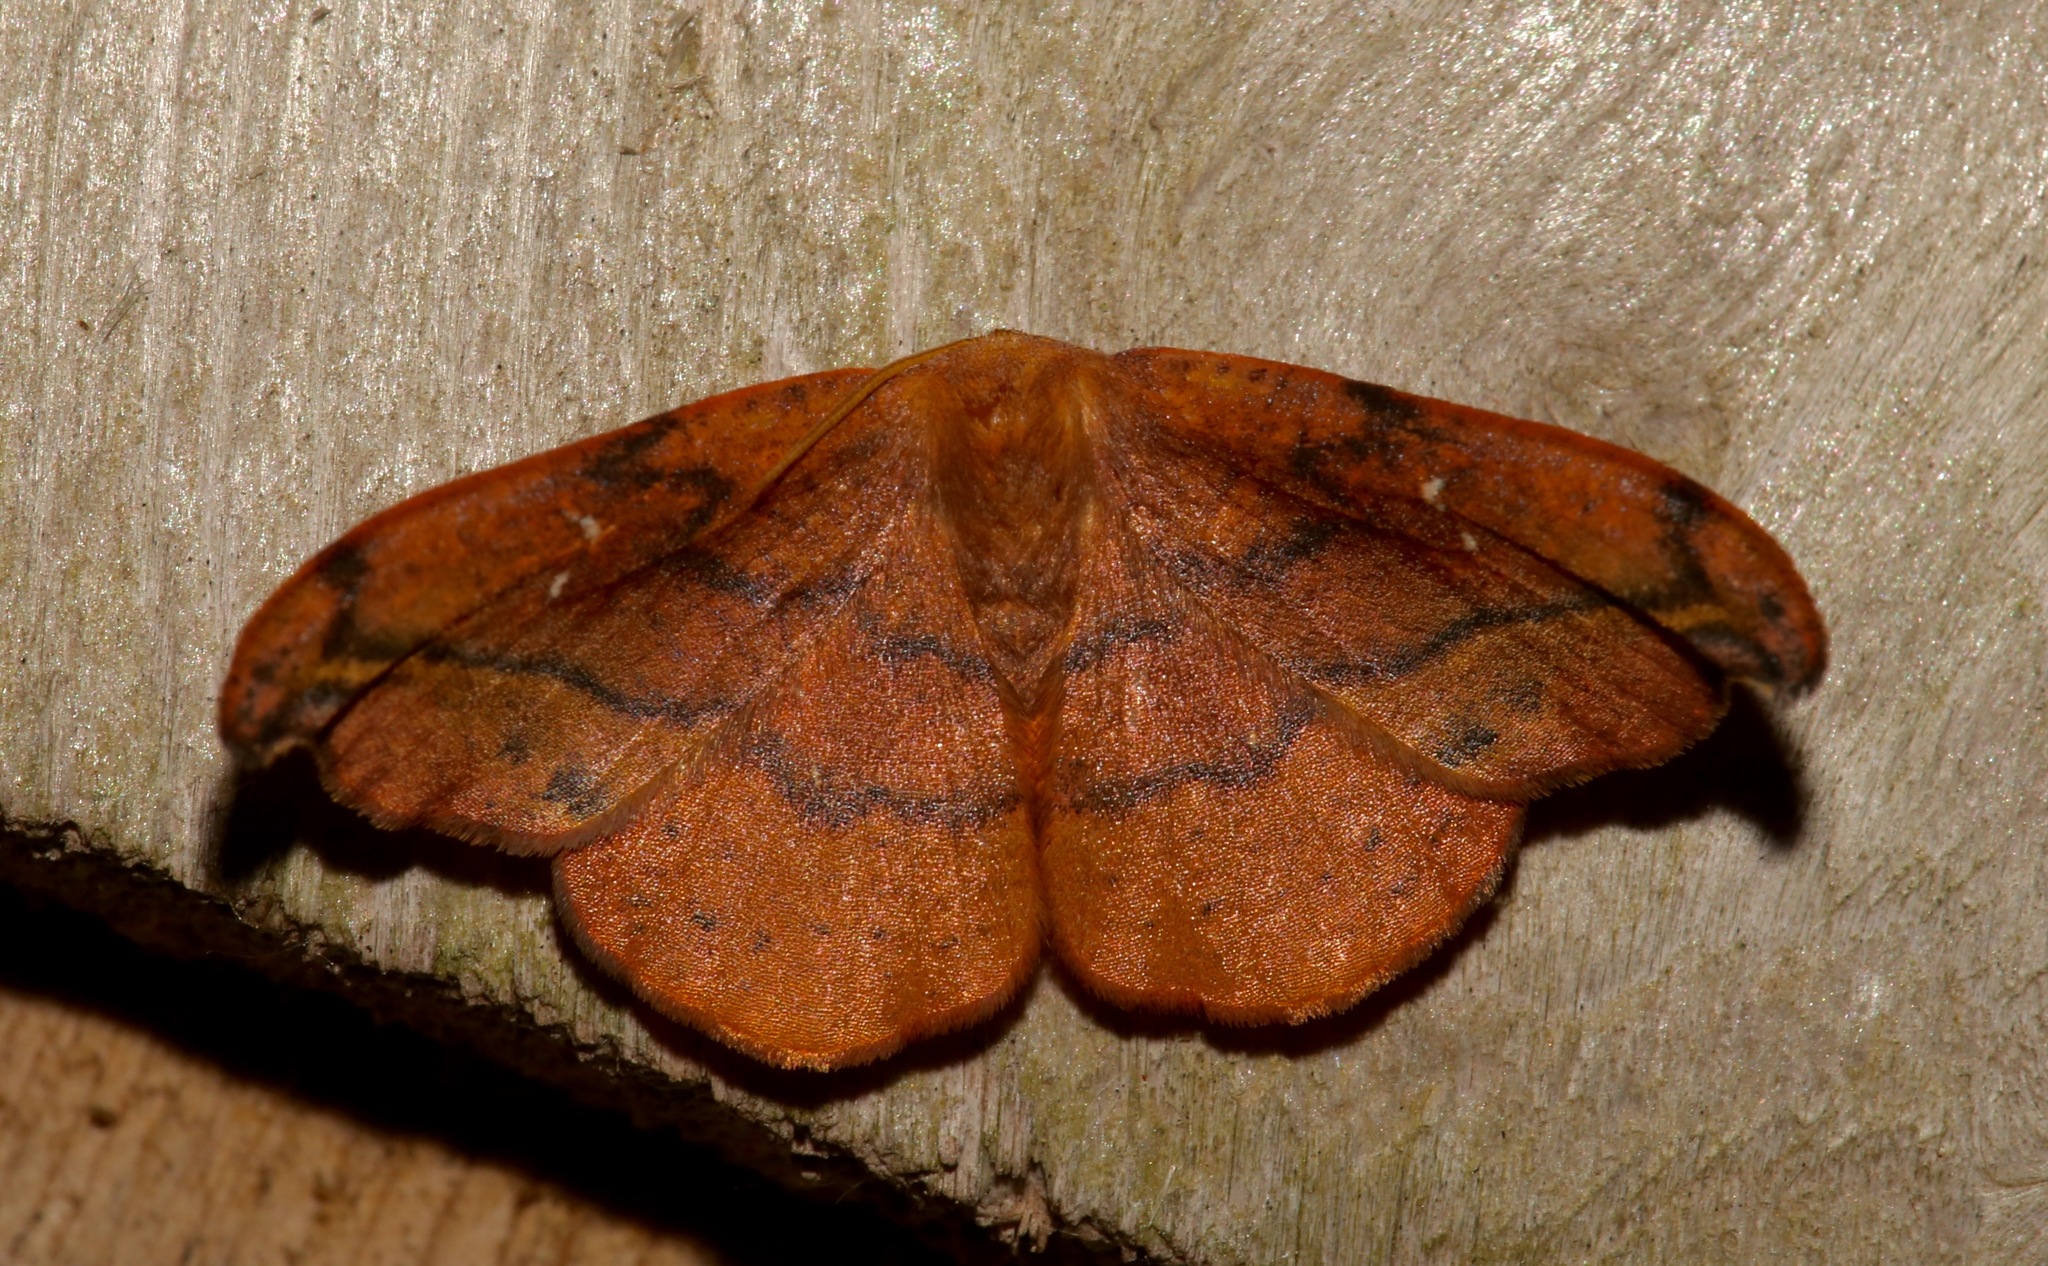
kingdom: Animalia
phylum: Arthropoda
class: Insecta
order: Lepidoptera
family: Drepanidae
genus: Oreta
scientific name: Oreta rosea
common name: Rose hooktip
